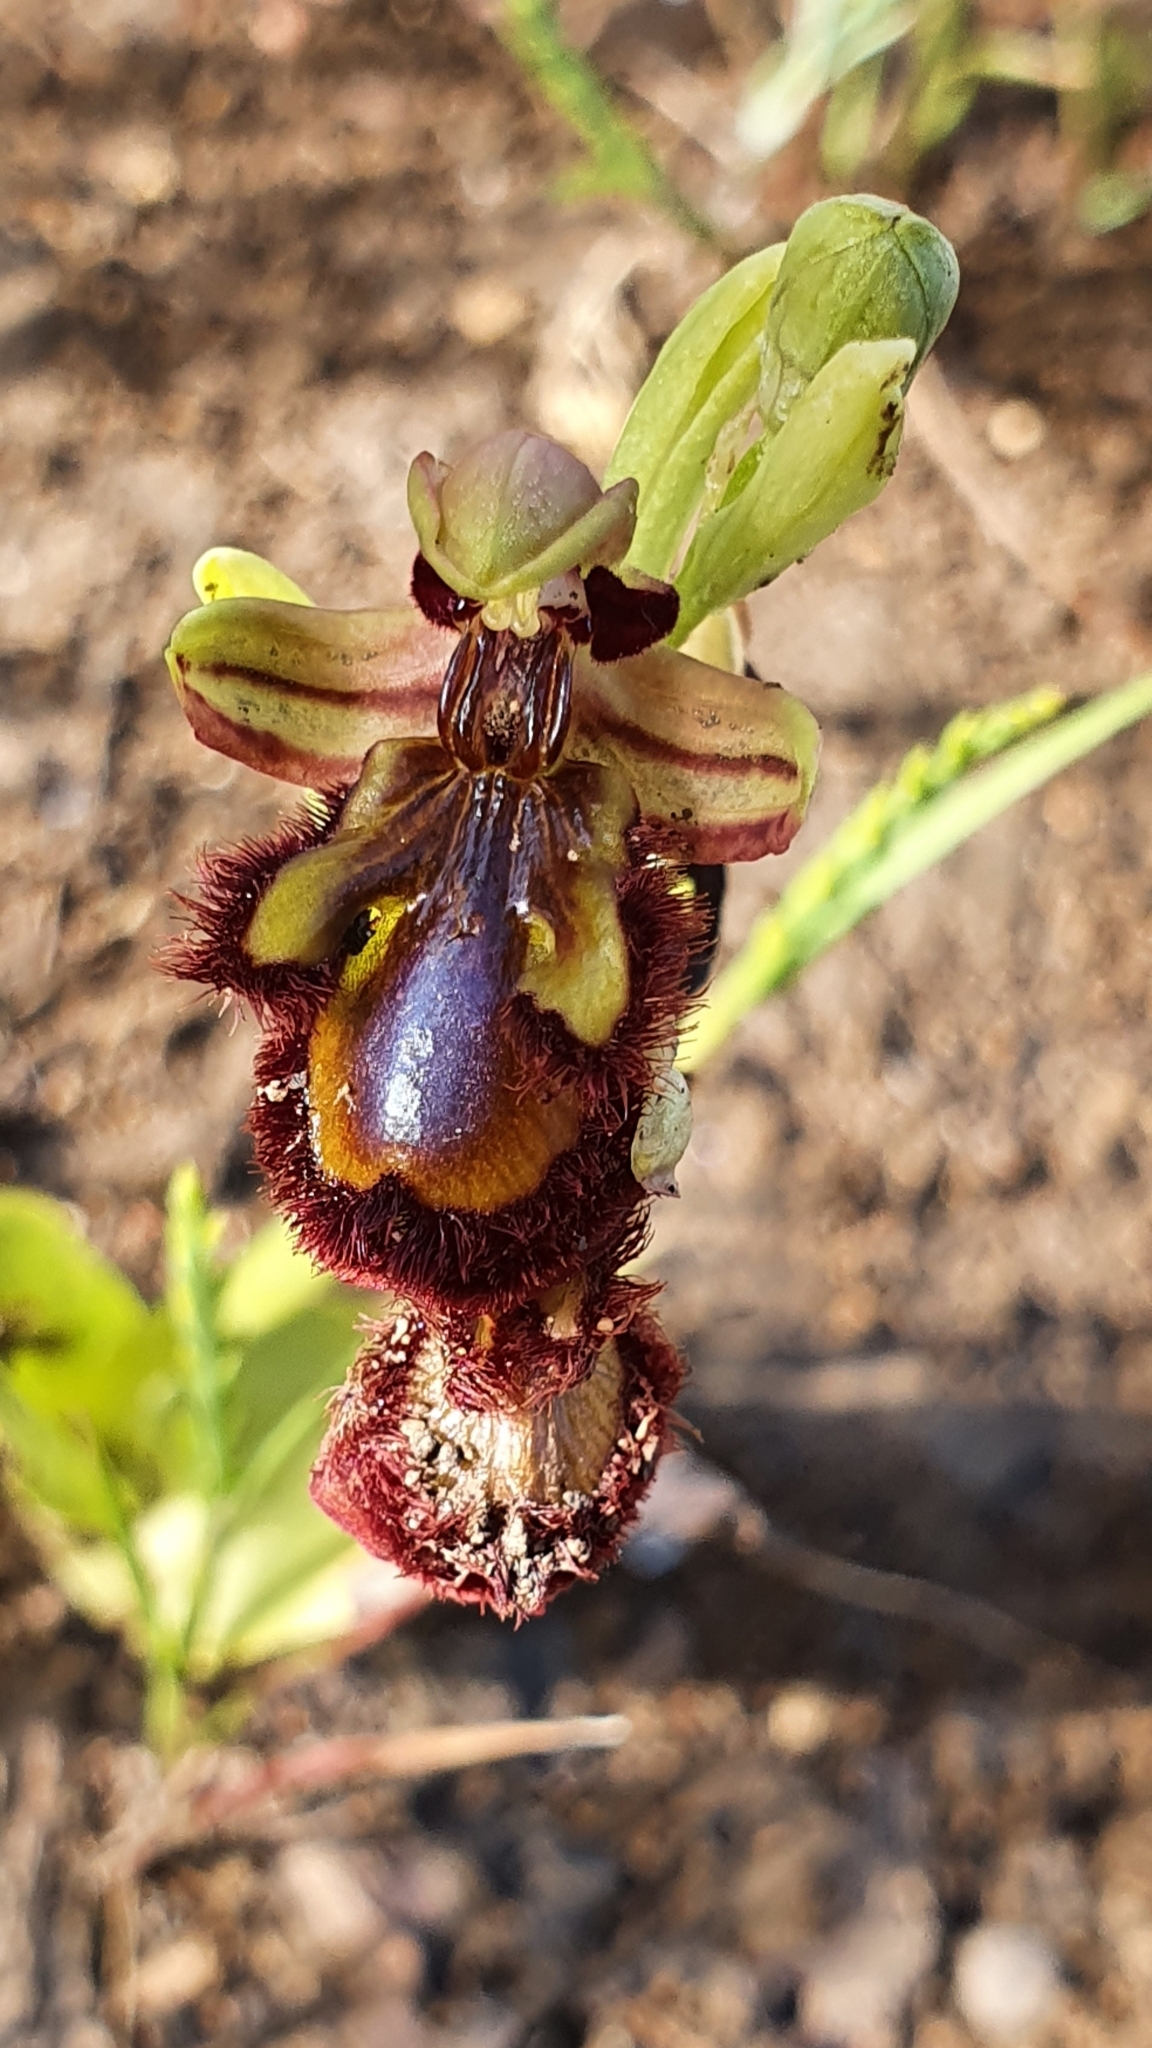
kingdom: Plantae
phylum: Tracheophyta
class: Liliopsida
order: Asparagales
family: Orchidaceae
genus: Ophrys
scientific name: Ophrys speculum
